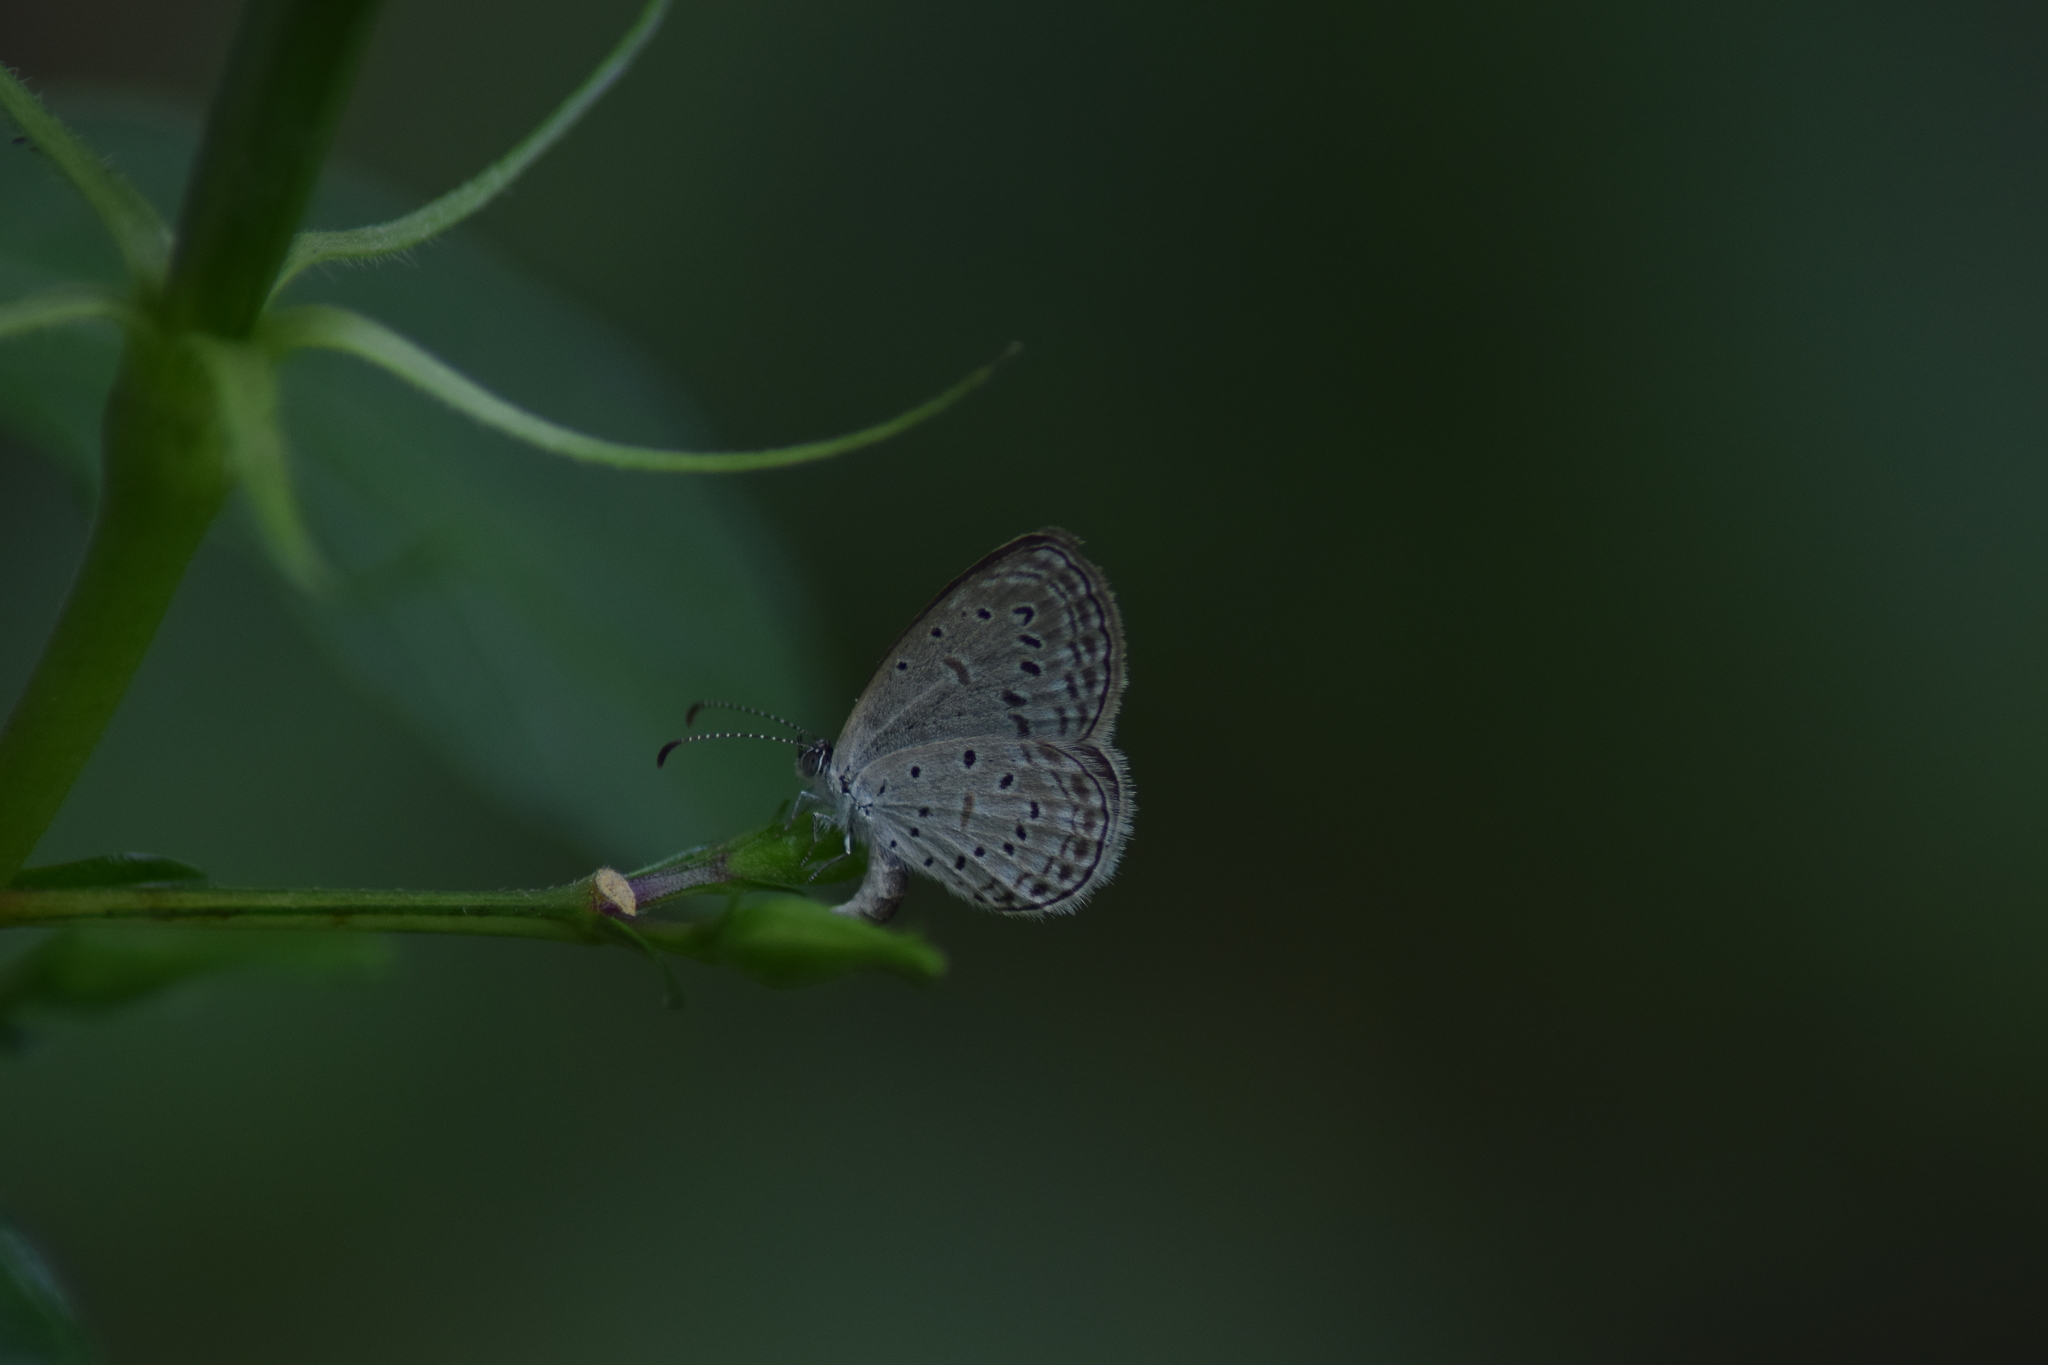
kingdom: Animalia
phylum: Arthropoda
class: Insecta
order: Lepidoptera
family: Lycaenidae
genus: Zizula
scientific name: Zizula hylax
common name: Gaika blue
